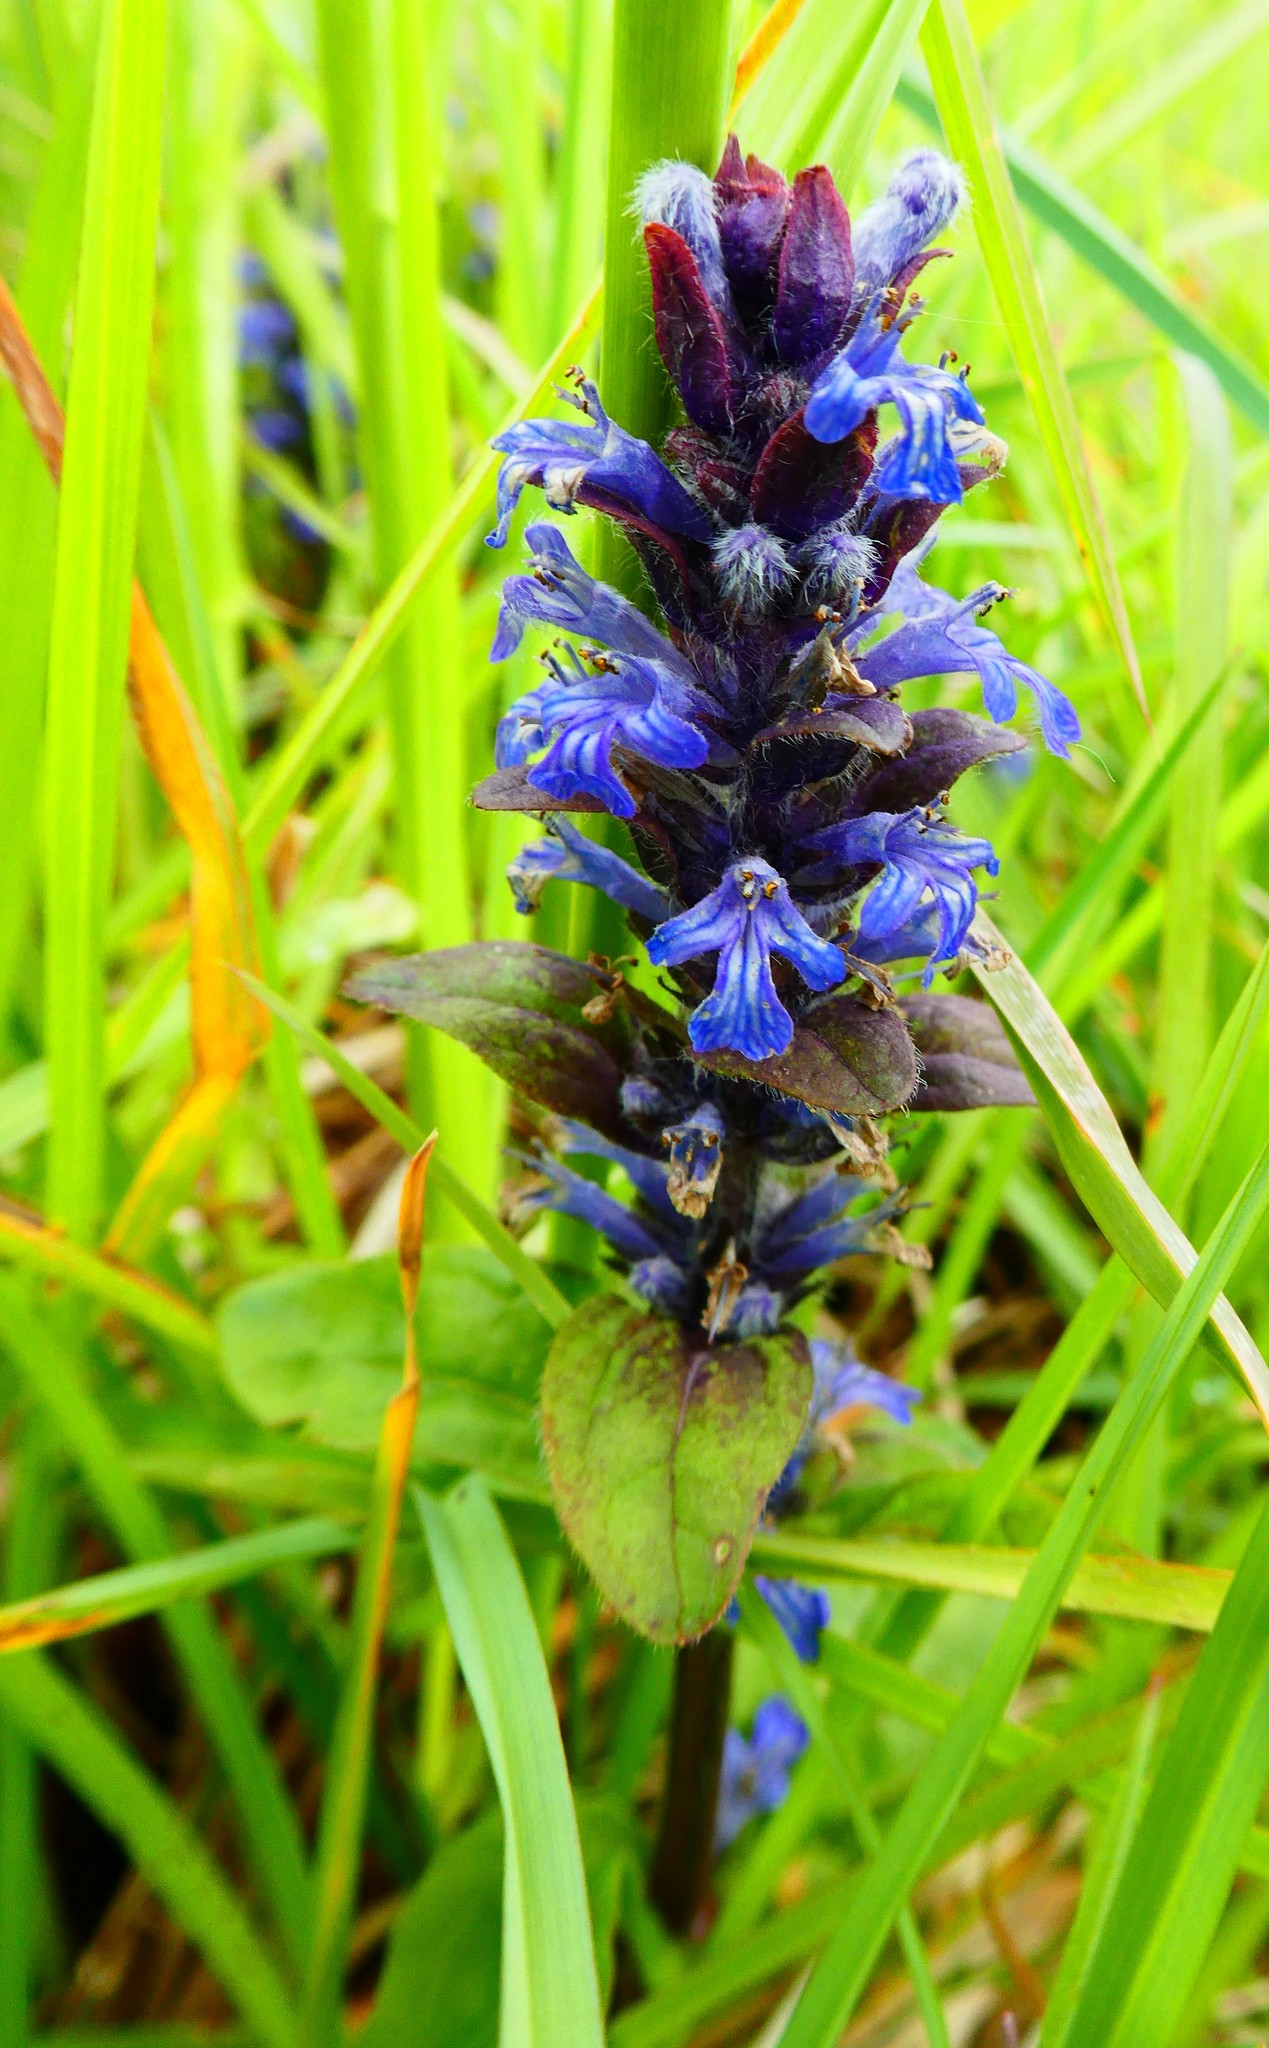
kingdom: Plantae
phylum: Tracheophyta
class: Magnoliopsida
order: Lamiales
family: Lamiaceae
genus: Ajuga
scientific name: Ajuga reptans
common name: Bugle
